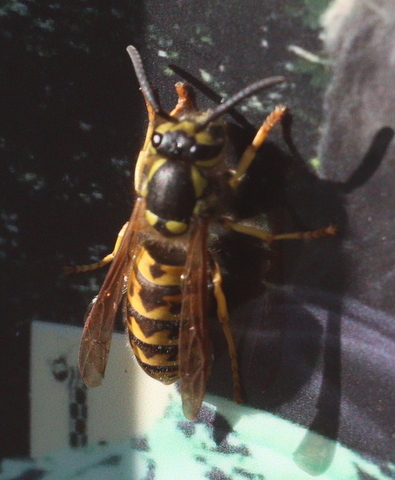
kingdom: Animalia
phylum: Arthropoda
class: Insecta
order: Hymenoptera
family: Vespidae
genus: Vespula
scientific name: Vespula germanica
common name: German wasp
